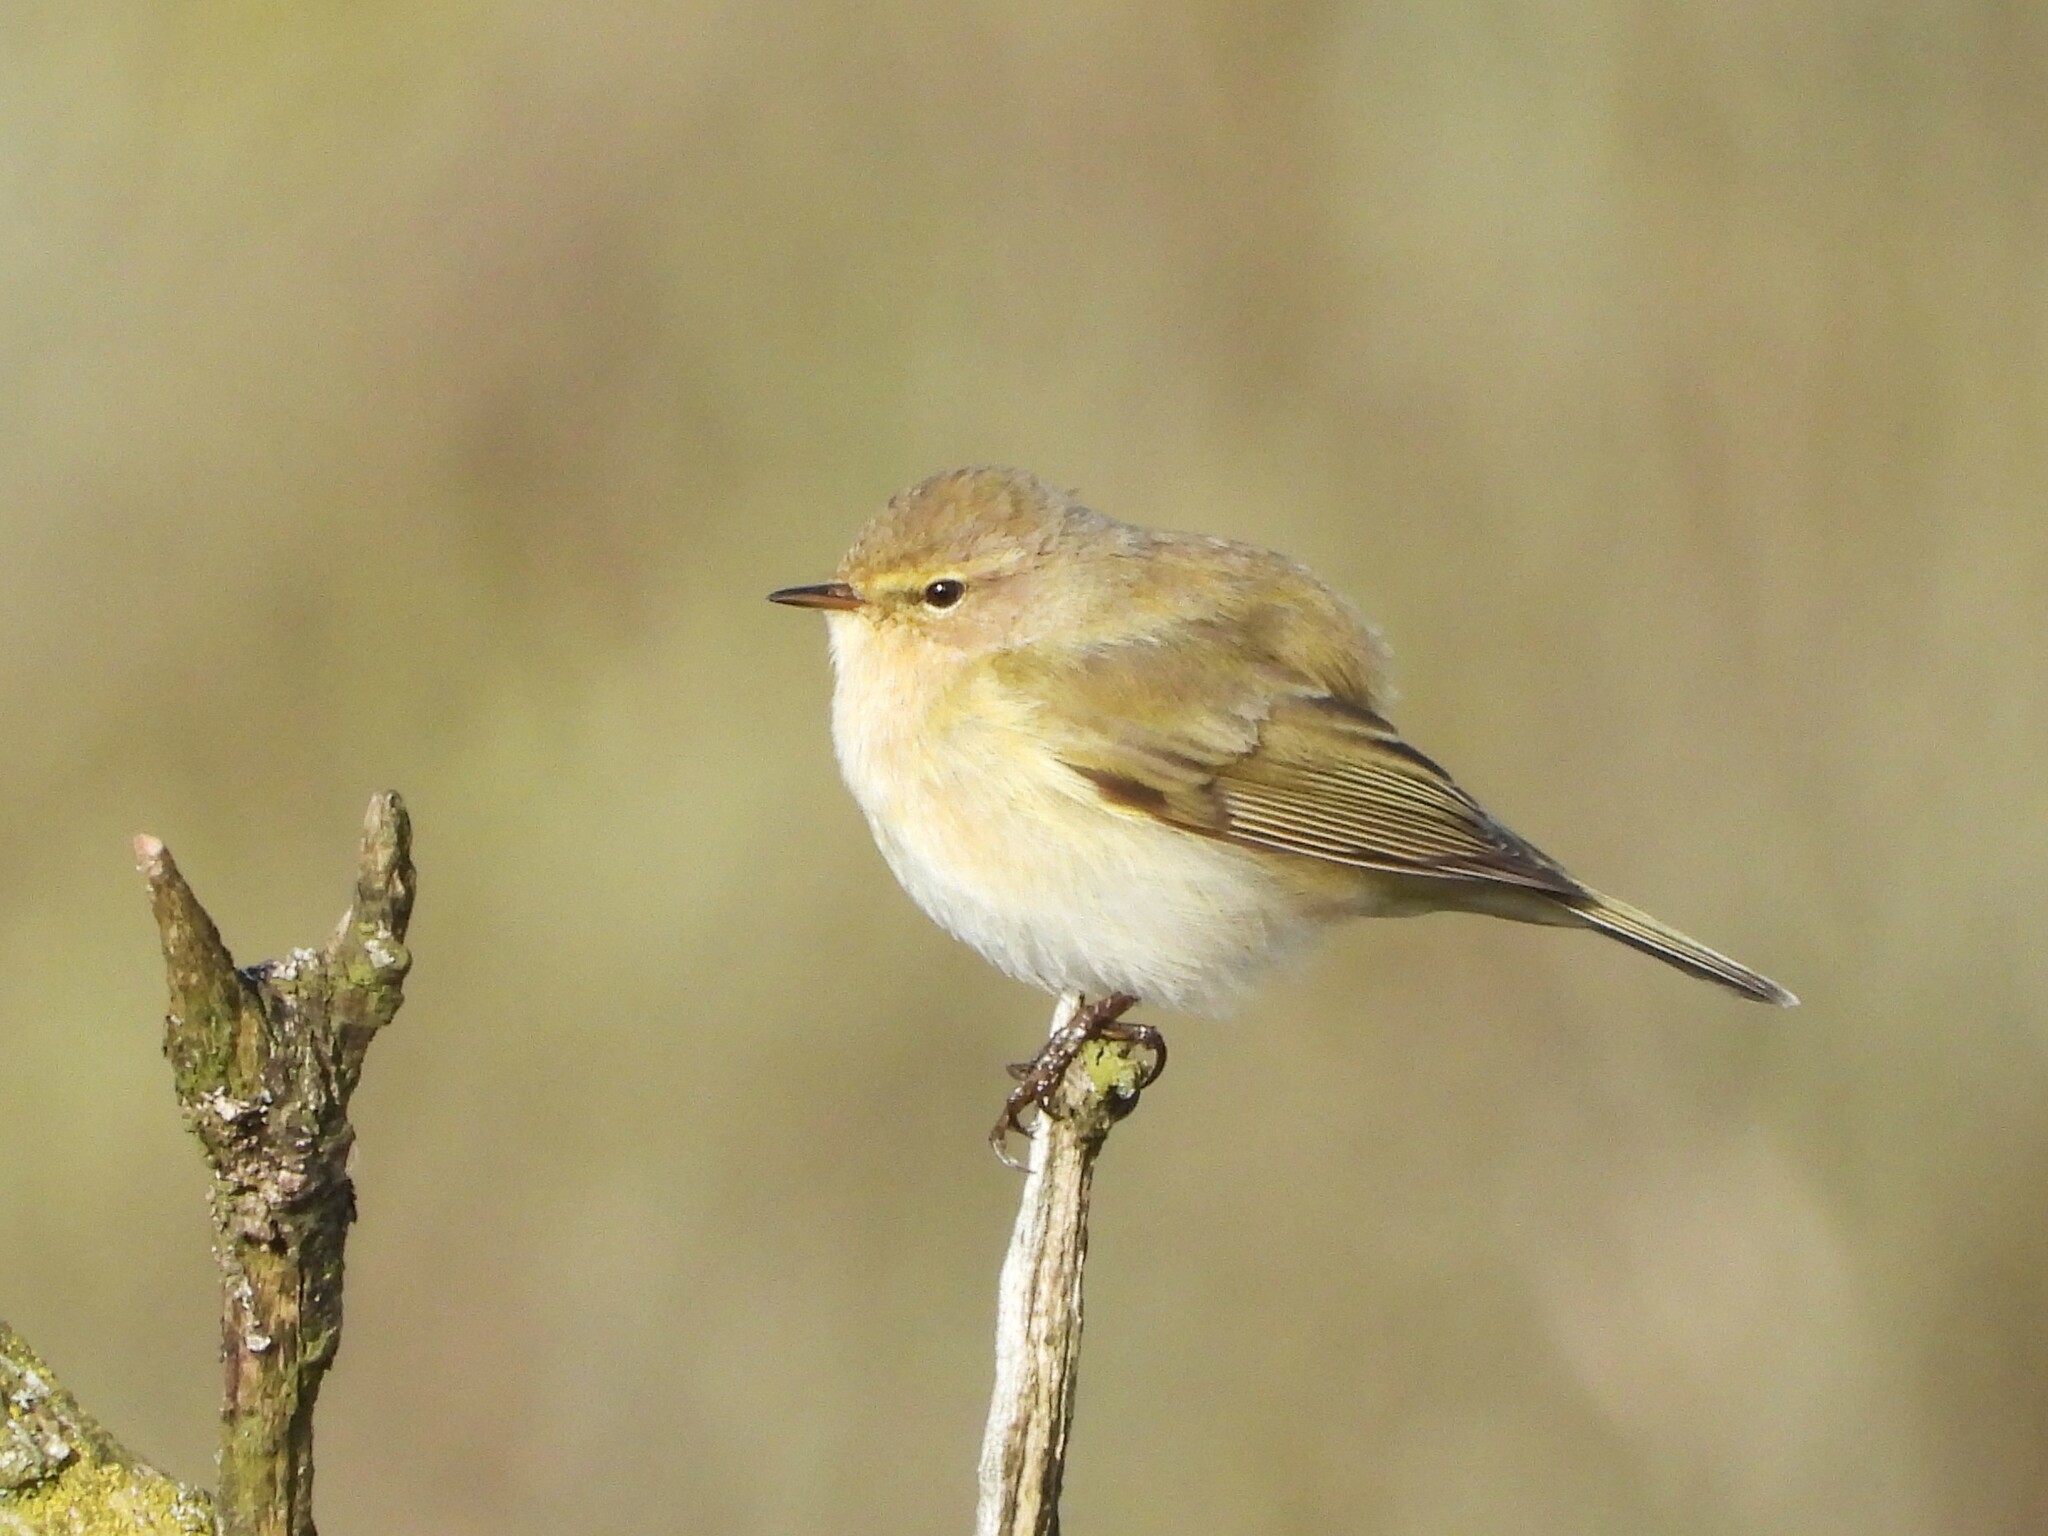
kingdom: Animalia
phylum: Chordata
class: Aves
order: Passeriformes
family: Phylloscopidae
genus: Phylloscopus
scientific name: Phylloscopus collybita
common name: Common chiffchaff
